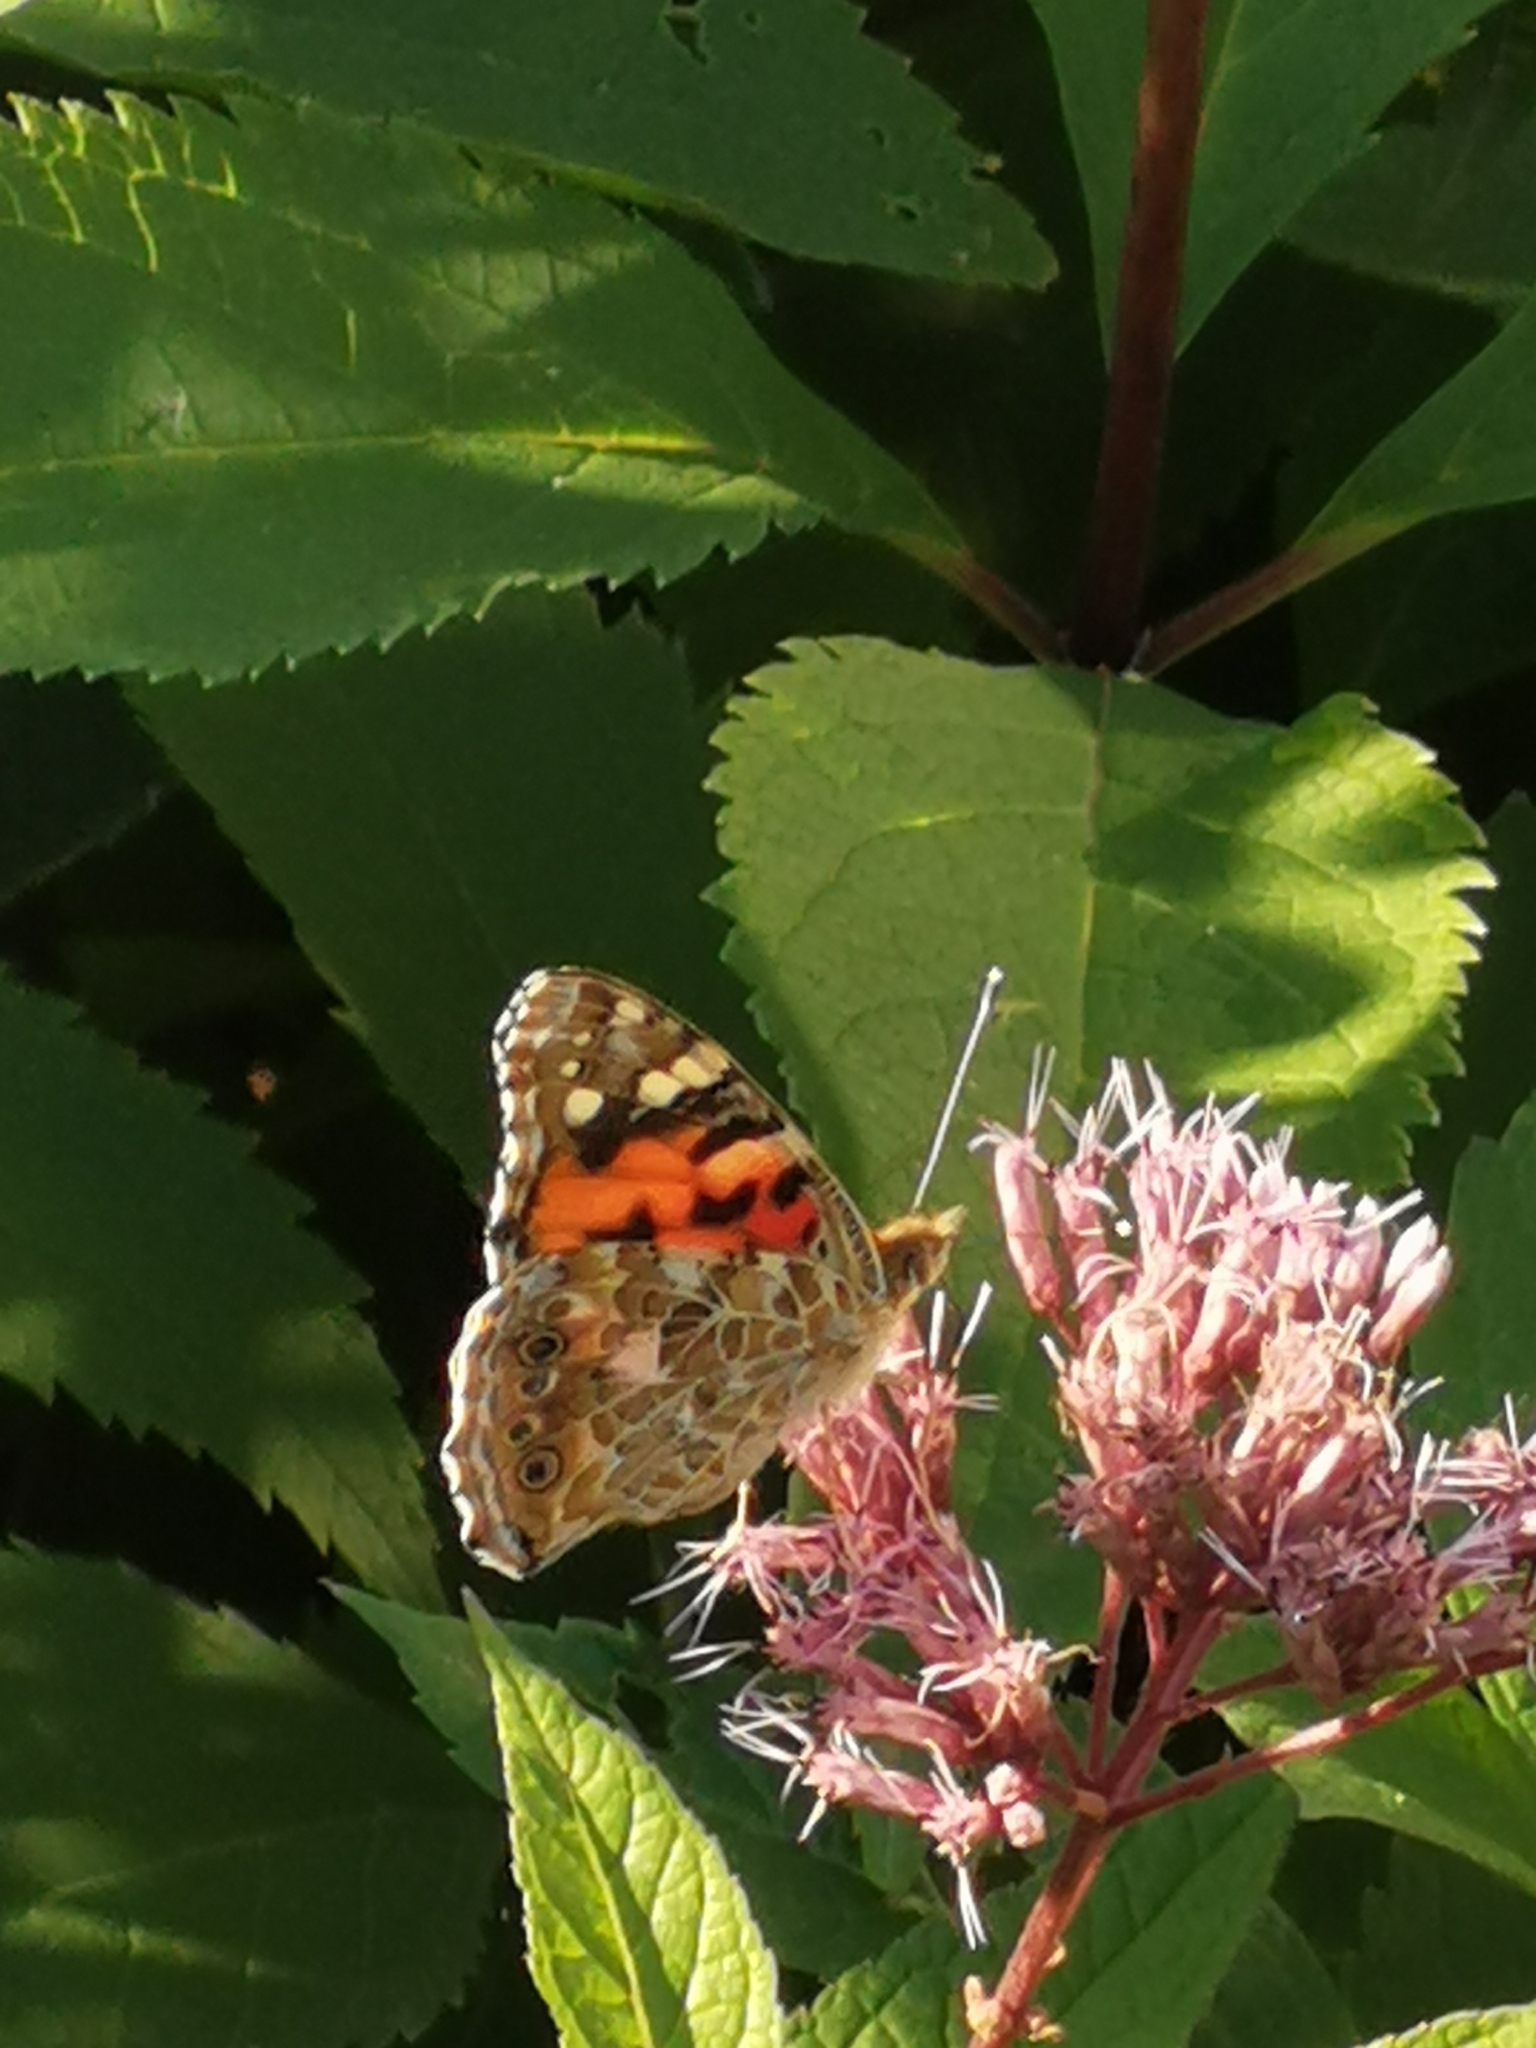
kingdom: Animalia
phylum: Arthropoda
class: Insecta
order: Lepidoptera
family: Nymphalidae
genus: Vanessa
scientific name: Vanessa cardui
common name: Painted lady
